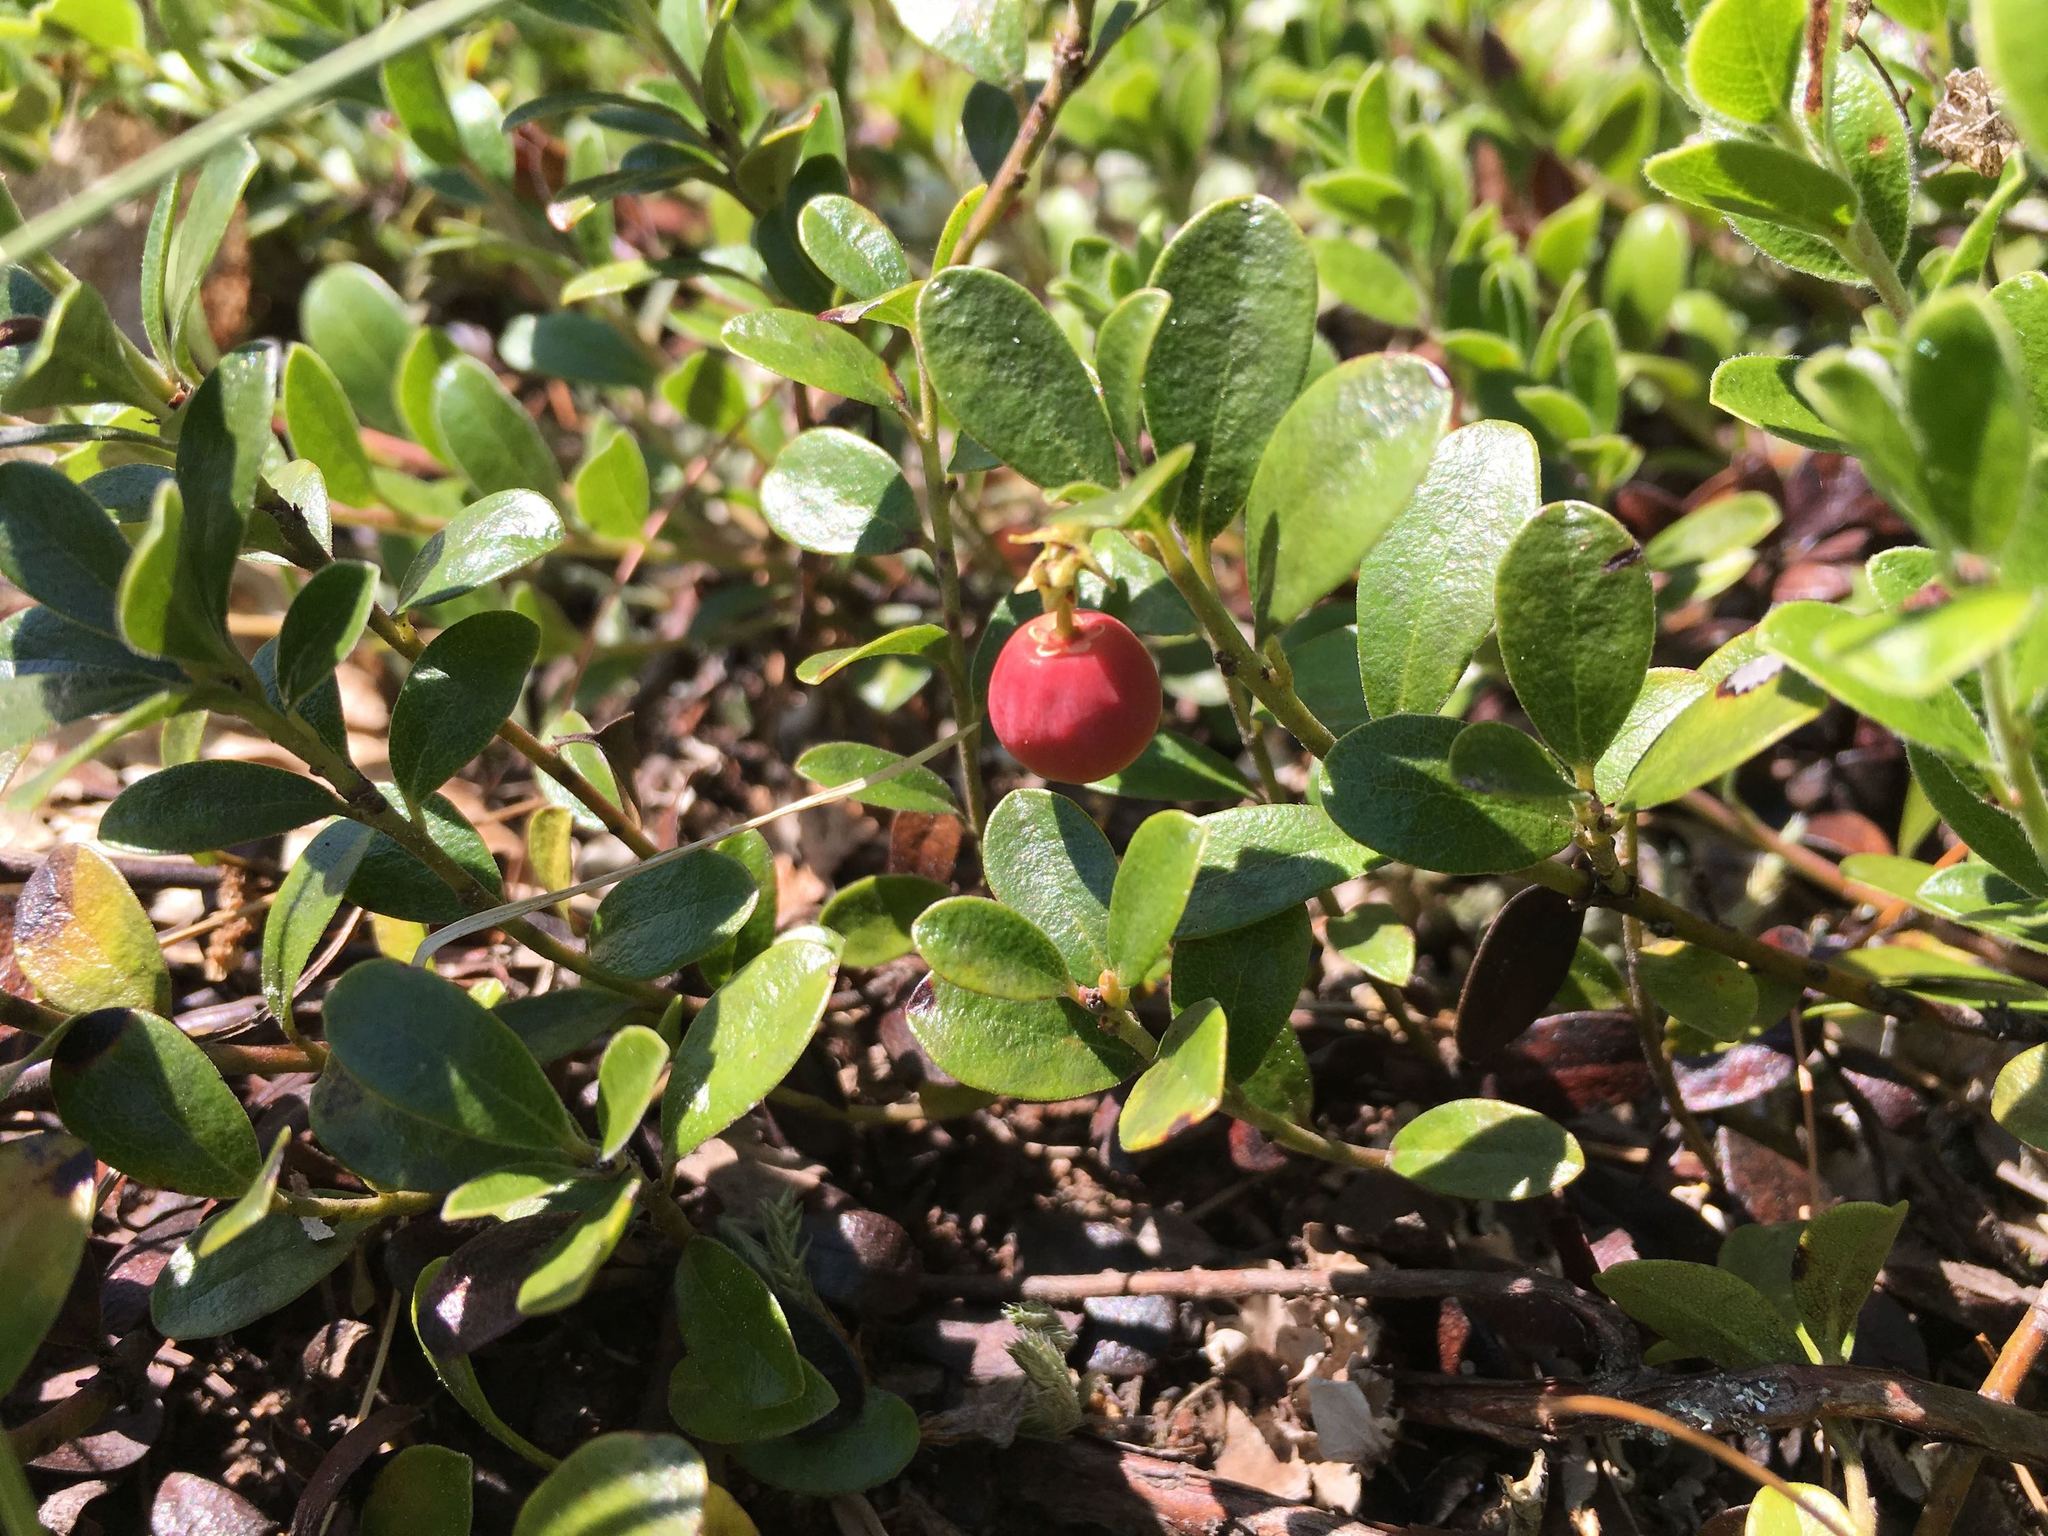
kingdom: Plantae
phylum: Tracheophyta
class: Magnoliopsida
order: Ericales
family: Ericaceae
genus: Arctostaphylos
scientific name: Arctostaphylos uva-ursi
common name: Bearberry
